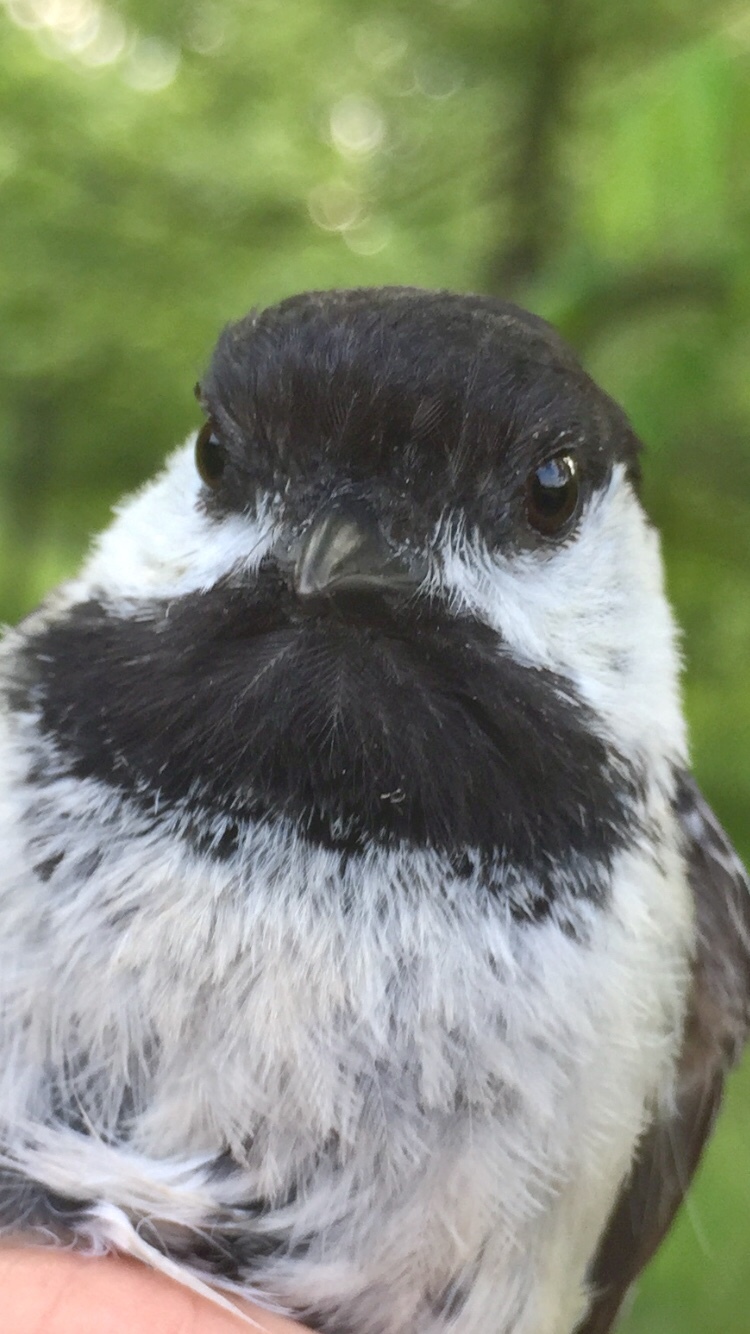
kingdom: Animalia
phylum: Chordata
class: Aves
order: Passeriformes
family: Paridae
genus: Poecile
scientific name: Poecile atricapillus
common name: Black-capped chickadee
